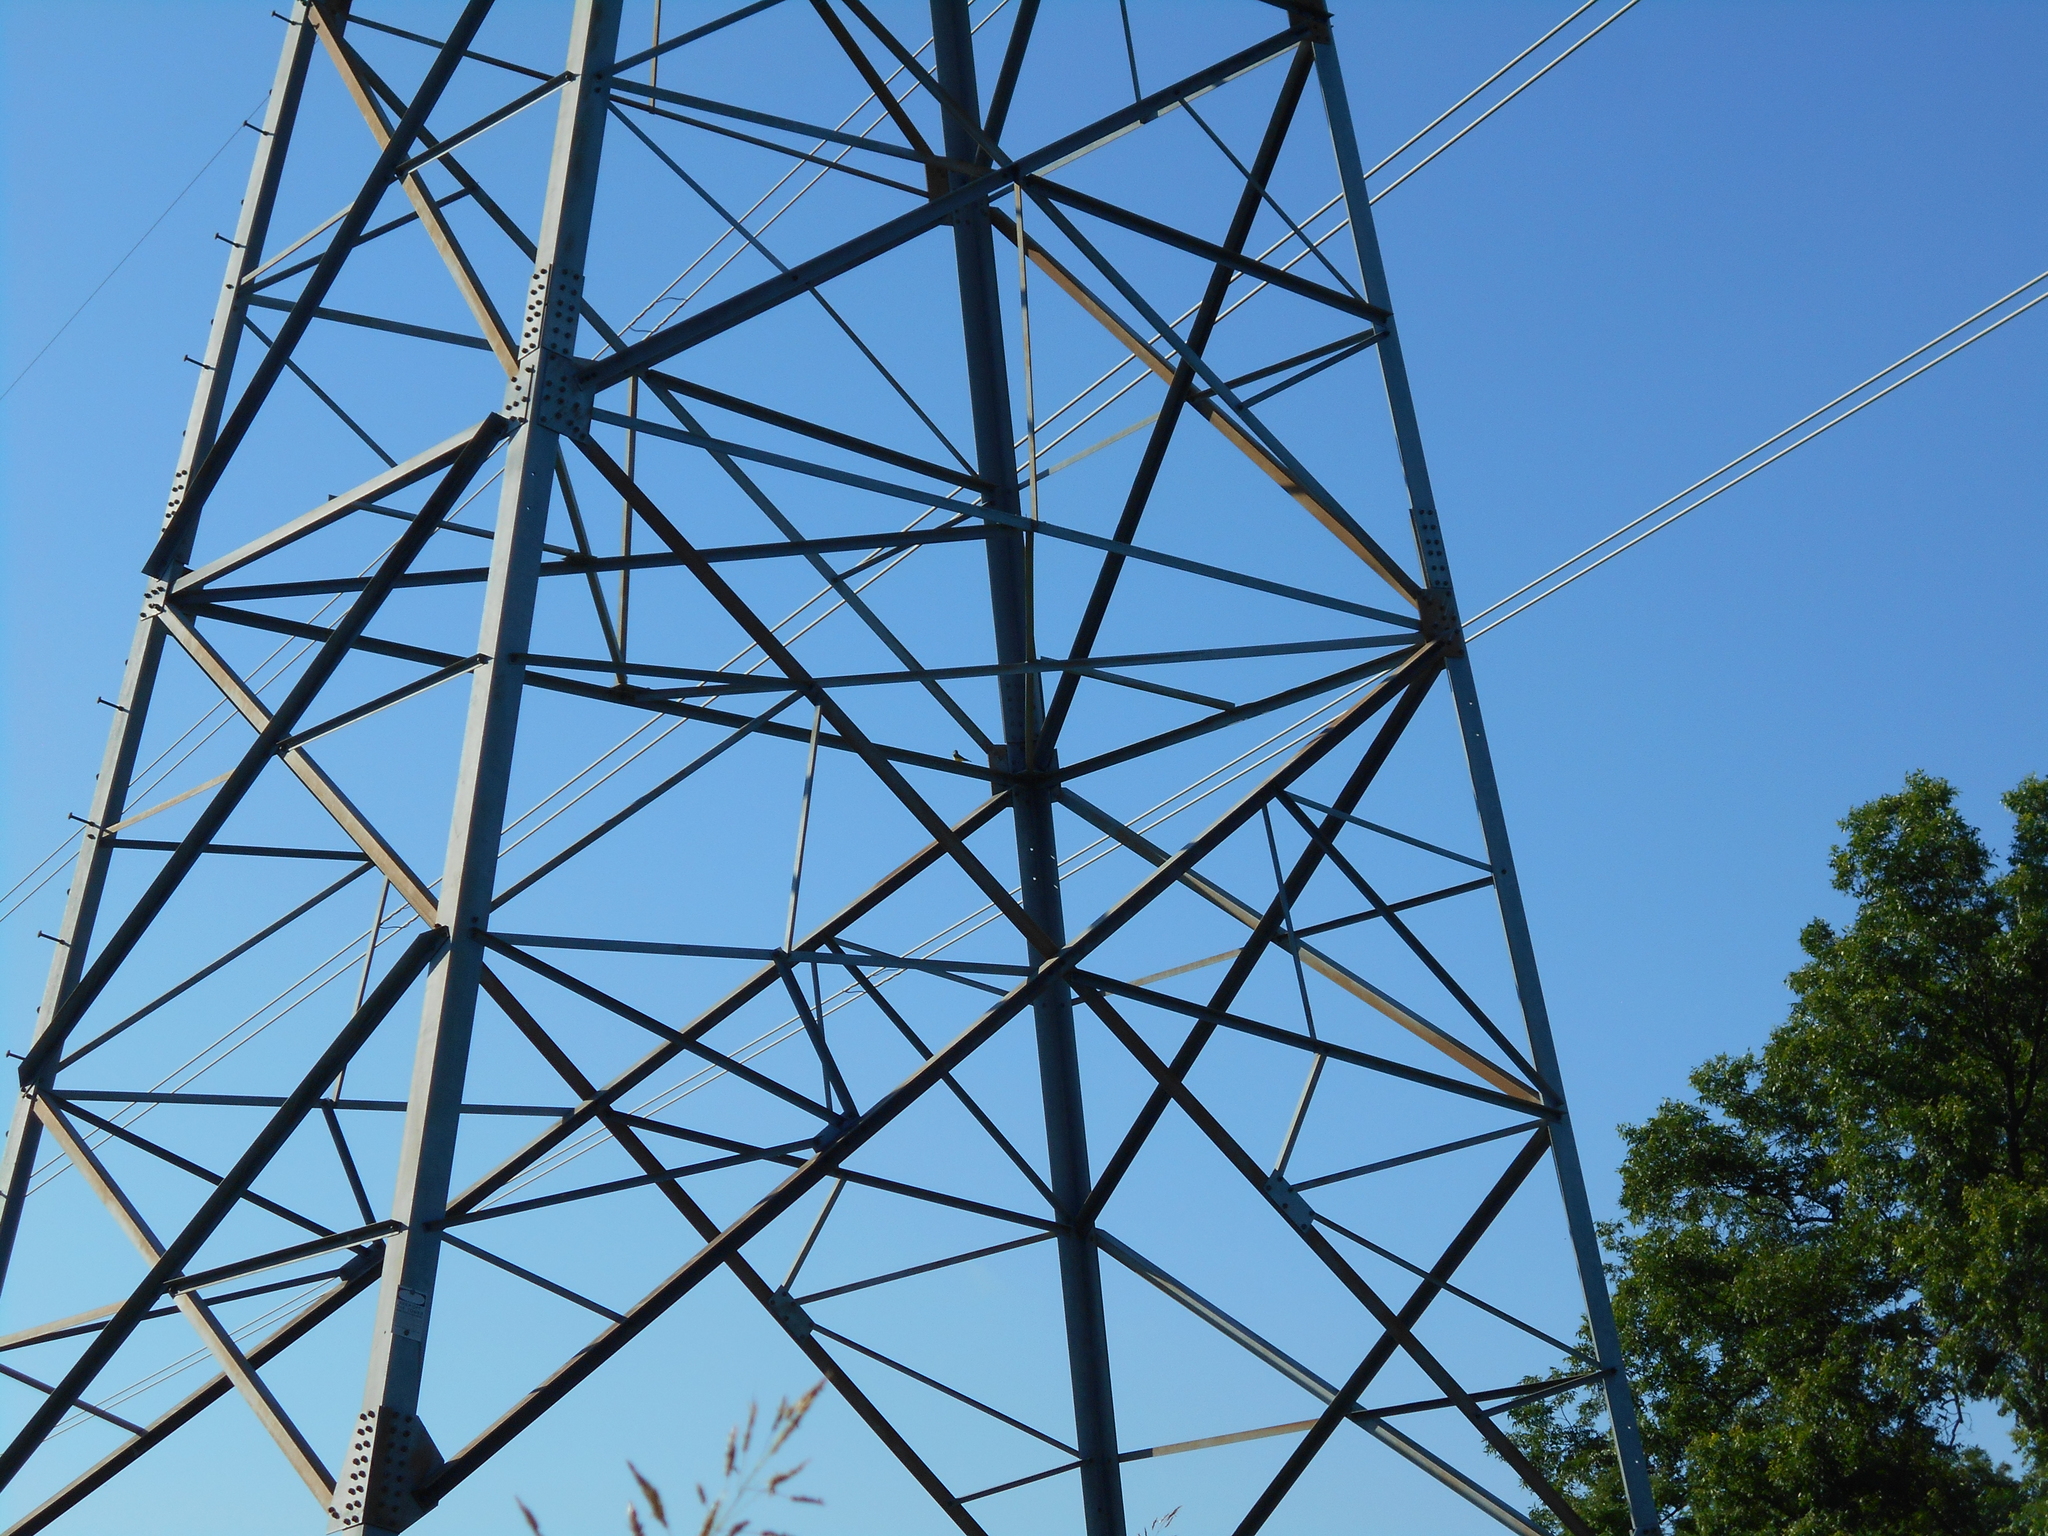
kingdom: Animalia
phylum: Chordata
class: Aves
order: Passeriformes
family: Tyrannidae
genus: Tyrannus
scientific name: Tyrannus verticalis
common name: Western kingbird
